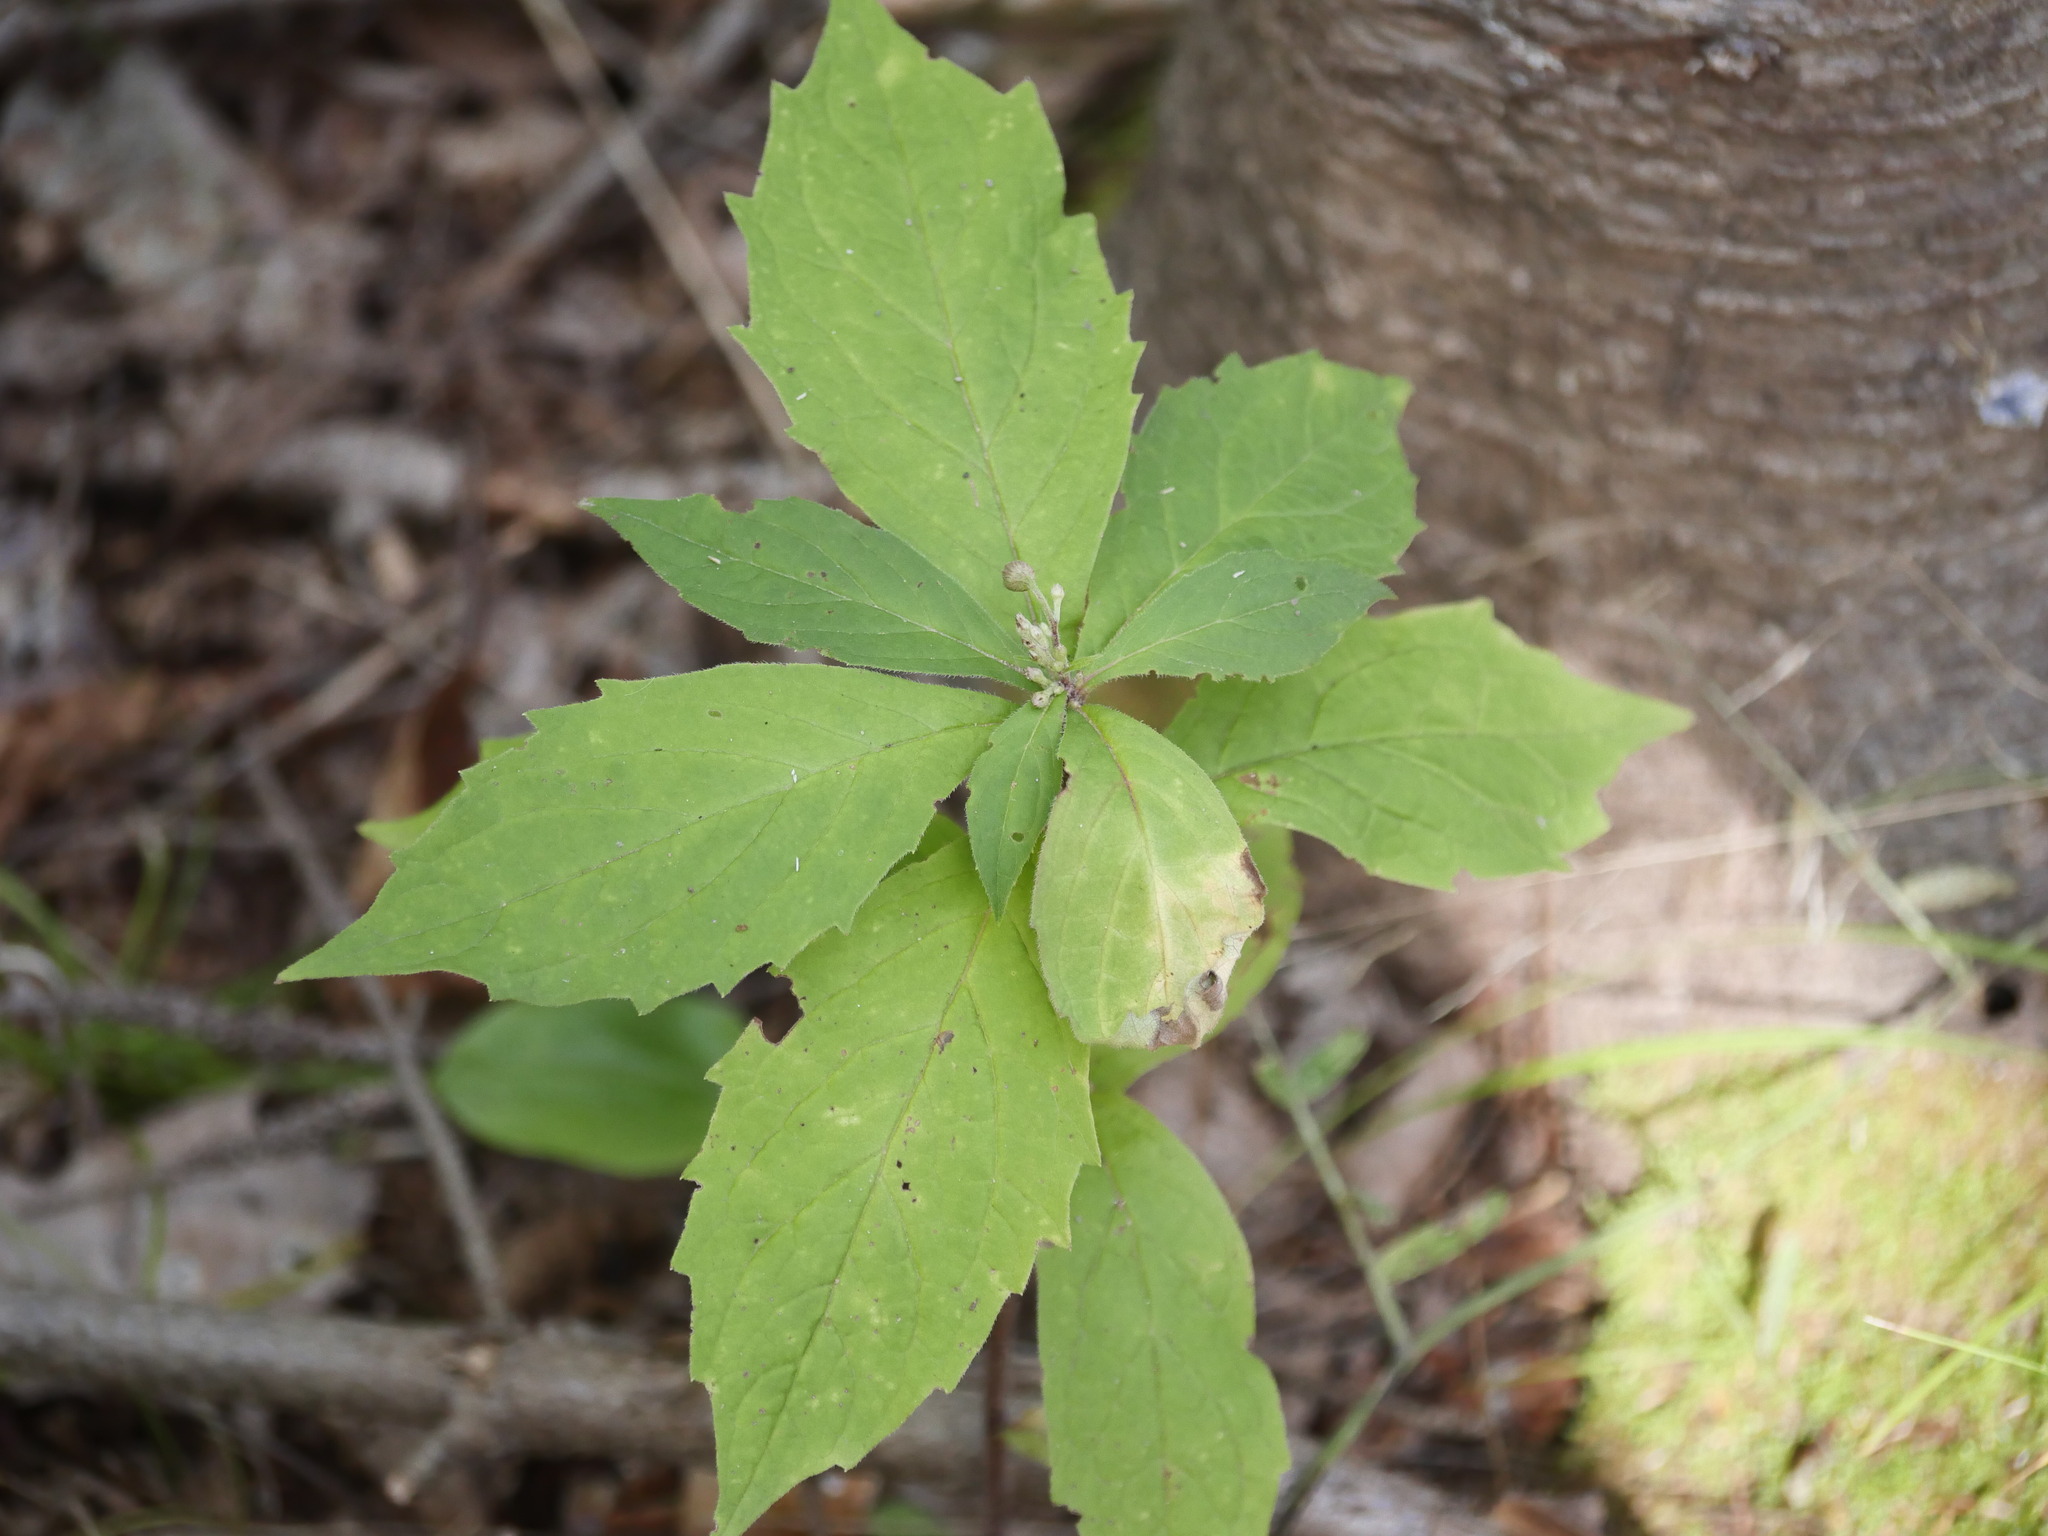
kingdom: Plantae
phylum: Tracheophyta
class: Magnoliopsida
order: Asterales
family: Asteraceae
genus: Oclemena
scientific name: Oclemena acuminata
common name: Mountain aster
